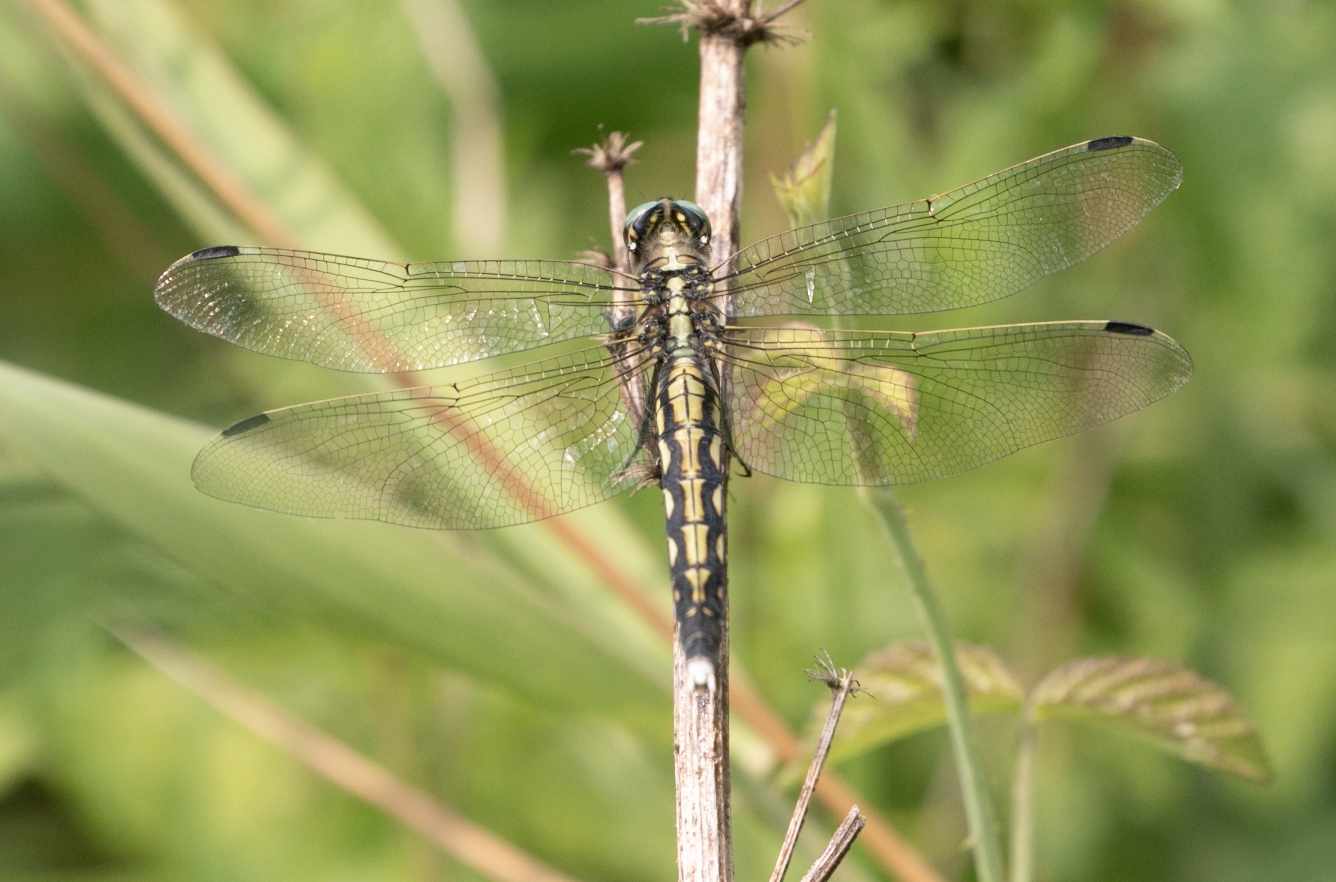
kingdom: Animalia
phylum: Arthropoda
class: Insecta
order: Odonata
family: Libellulidae
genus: Orthetrum
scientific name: Orthetrum albistylum
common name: White-tailed skimmer
